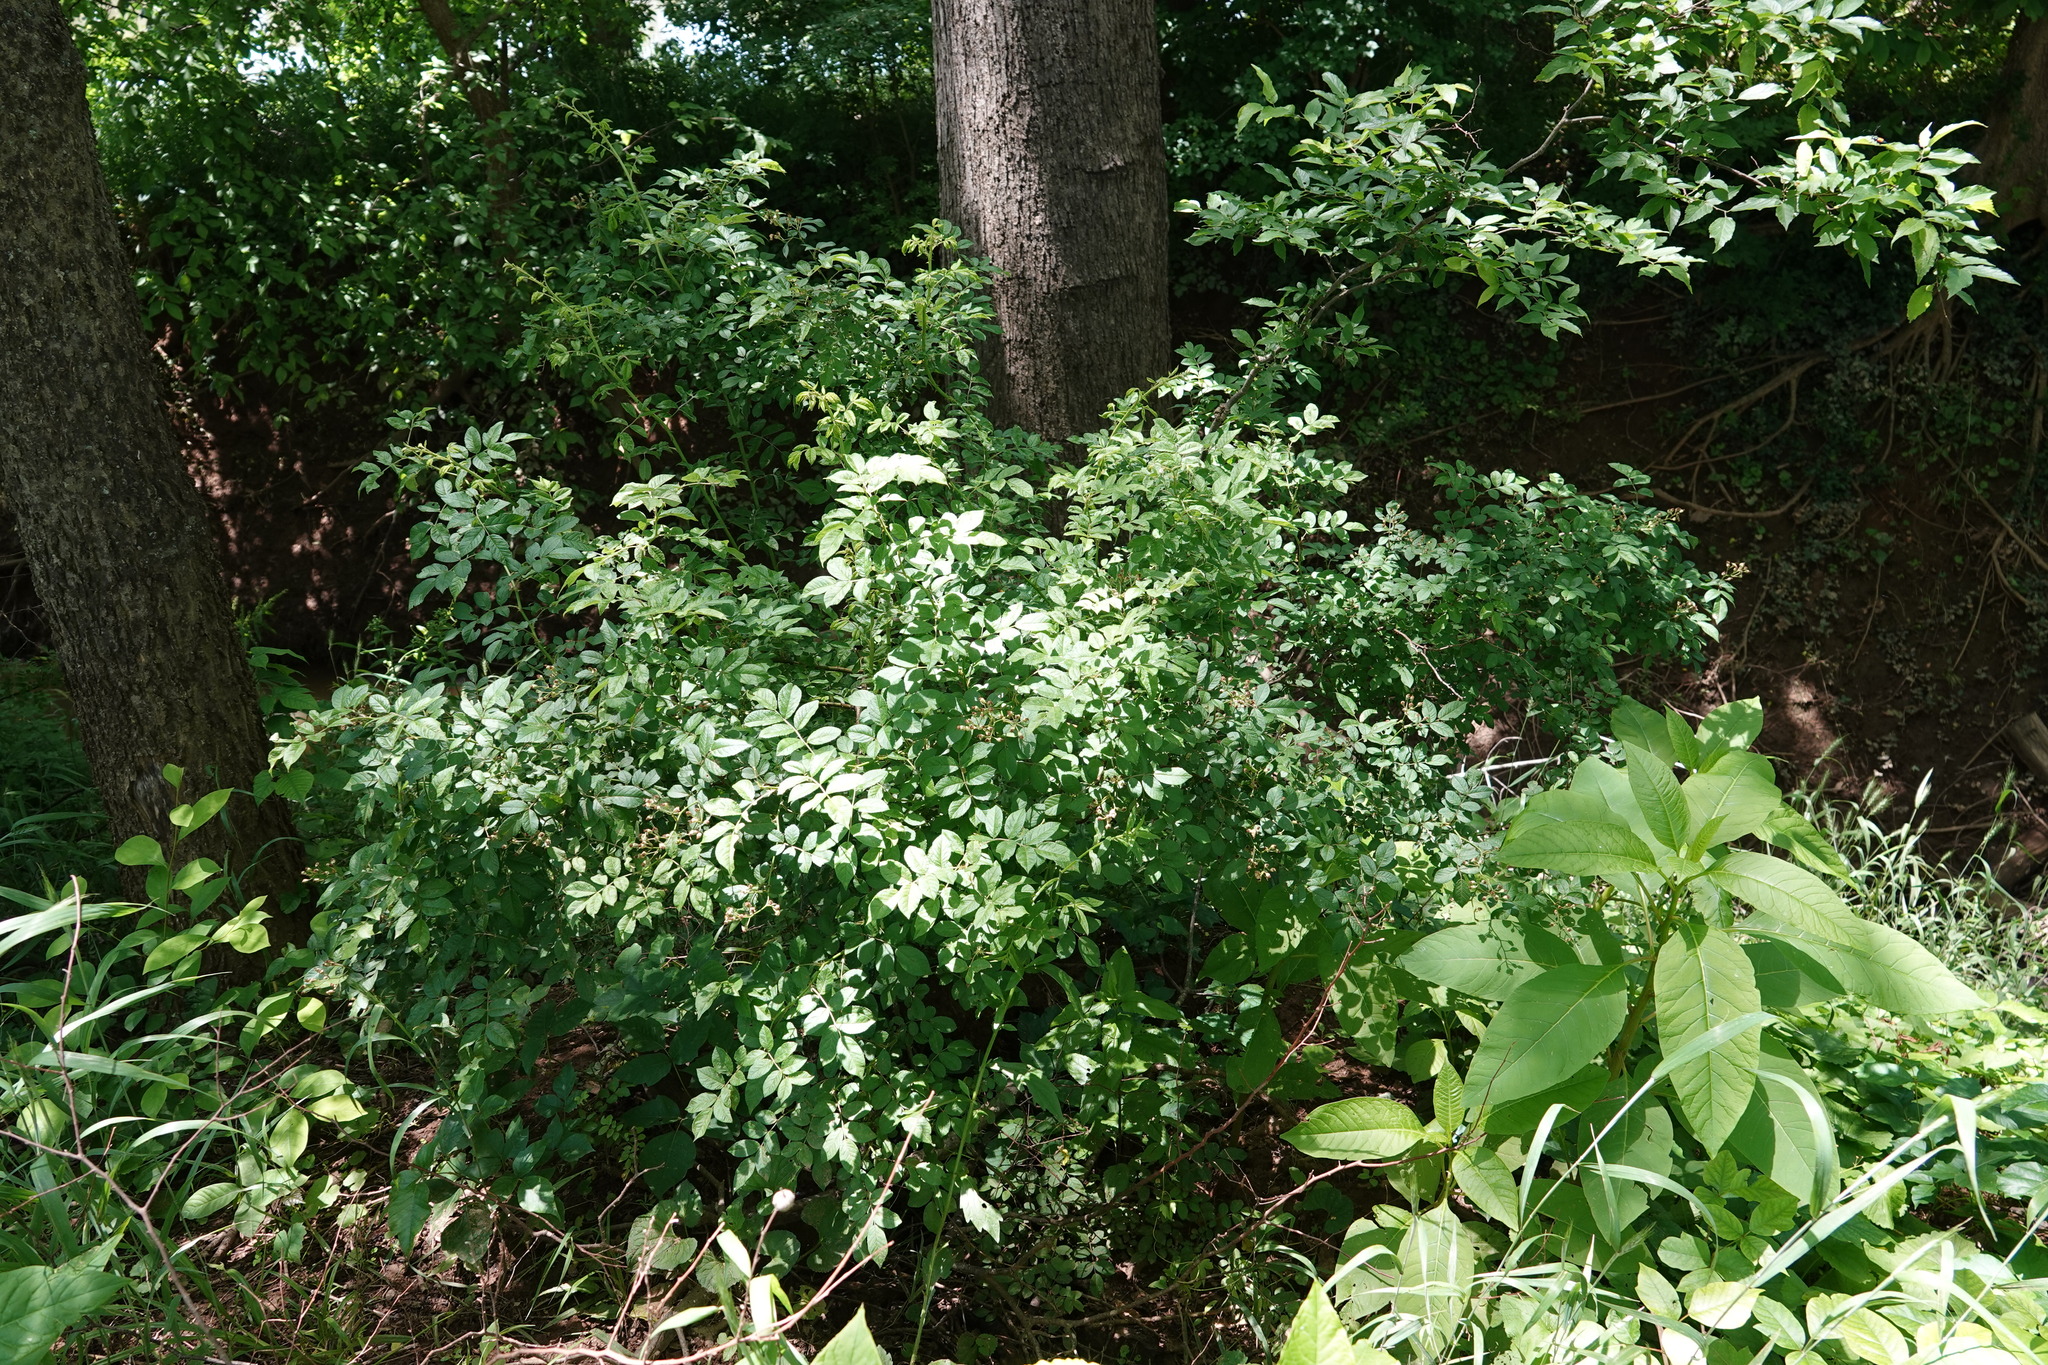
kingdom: Plantae
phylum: Tracheophyta
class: Magnoliopsida
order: Rosales
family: Rosaceae
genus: Rosa
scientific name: Rosa multiflora
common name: Multiflora rose
